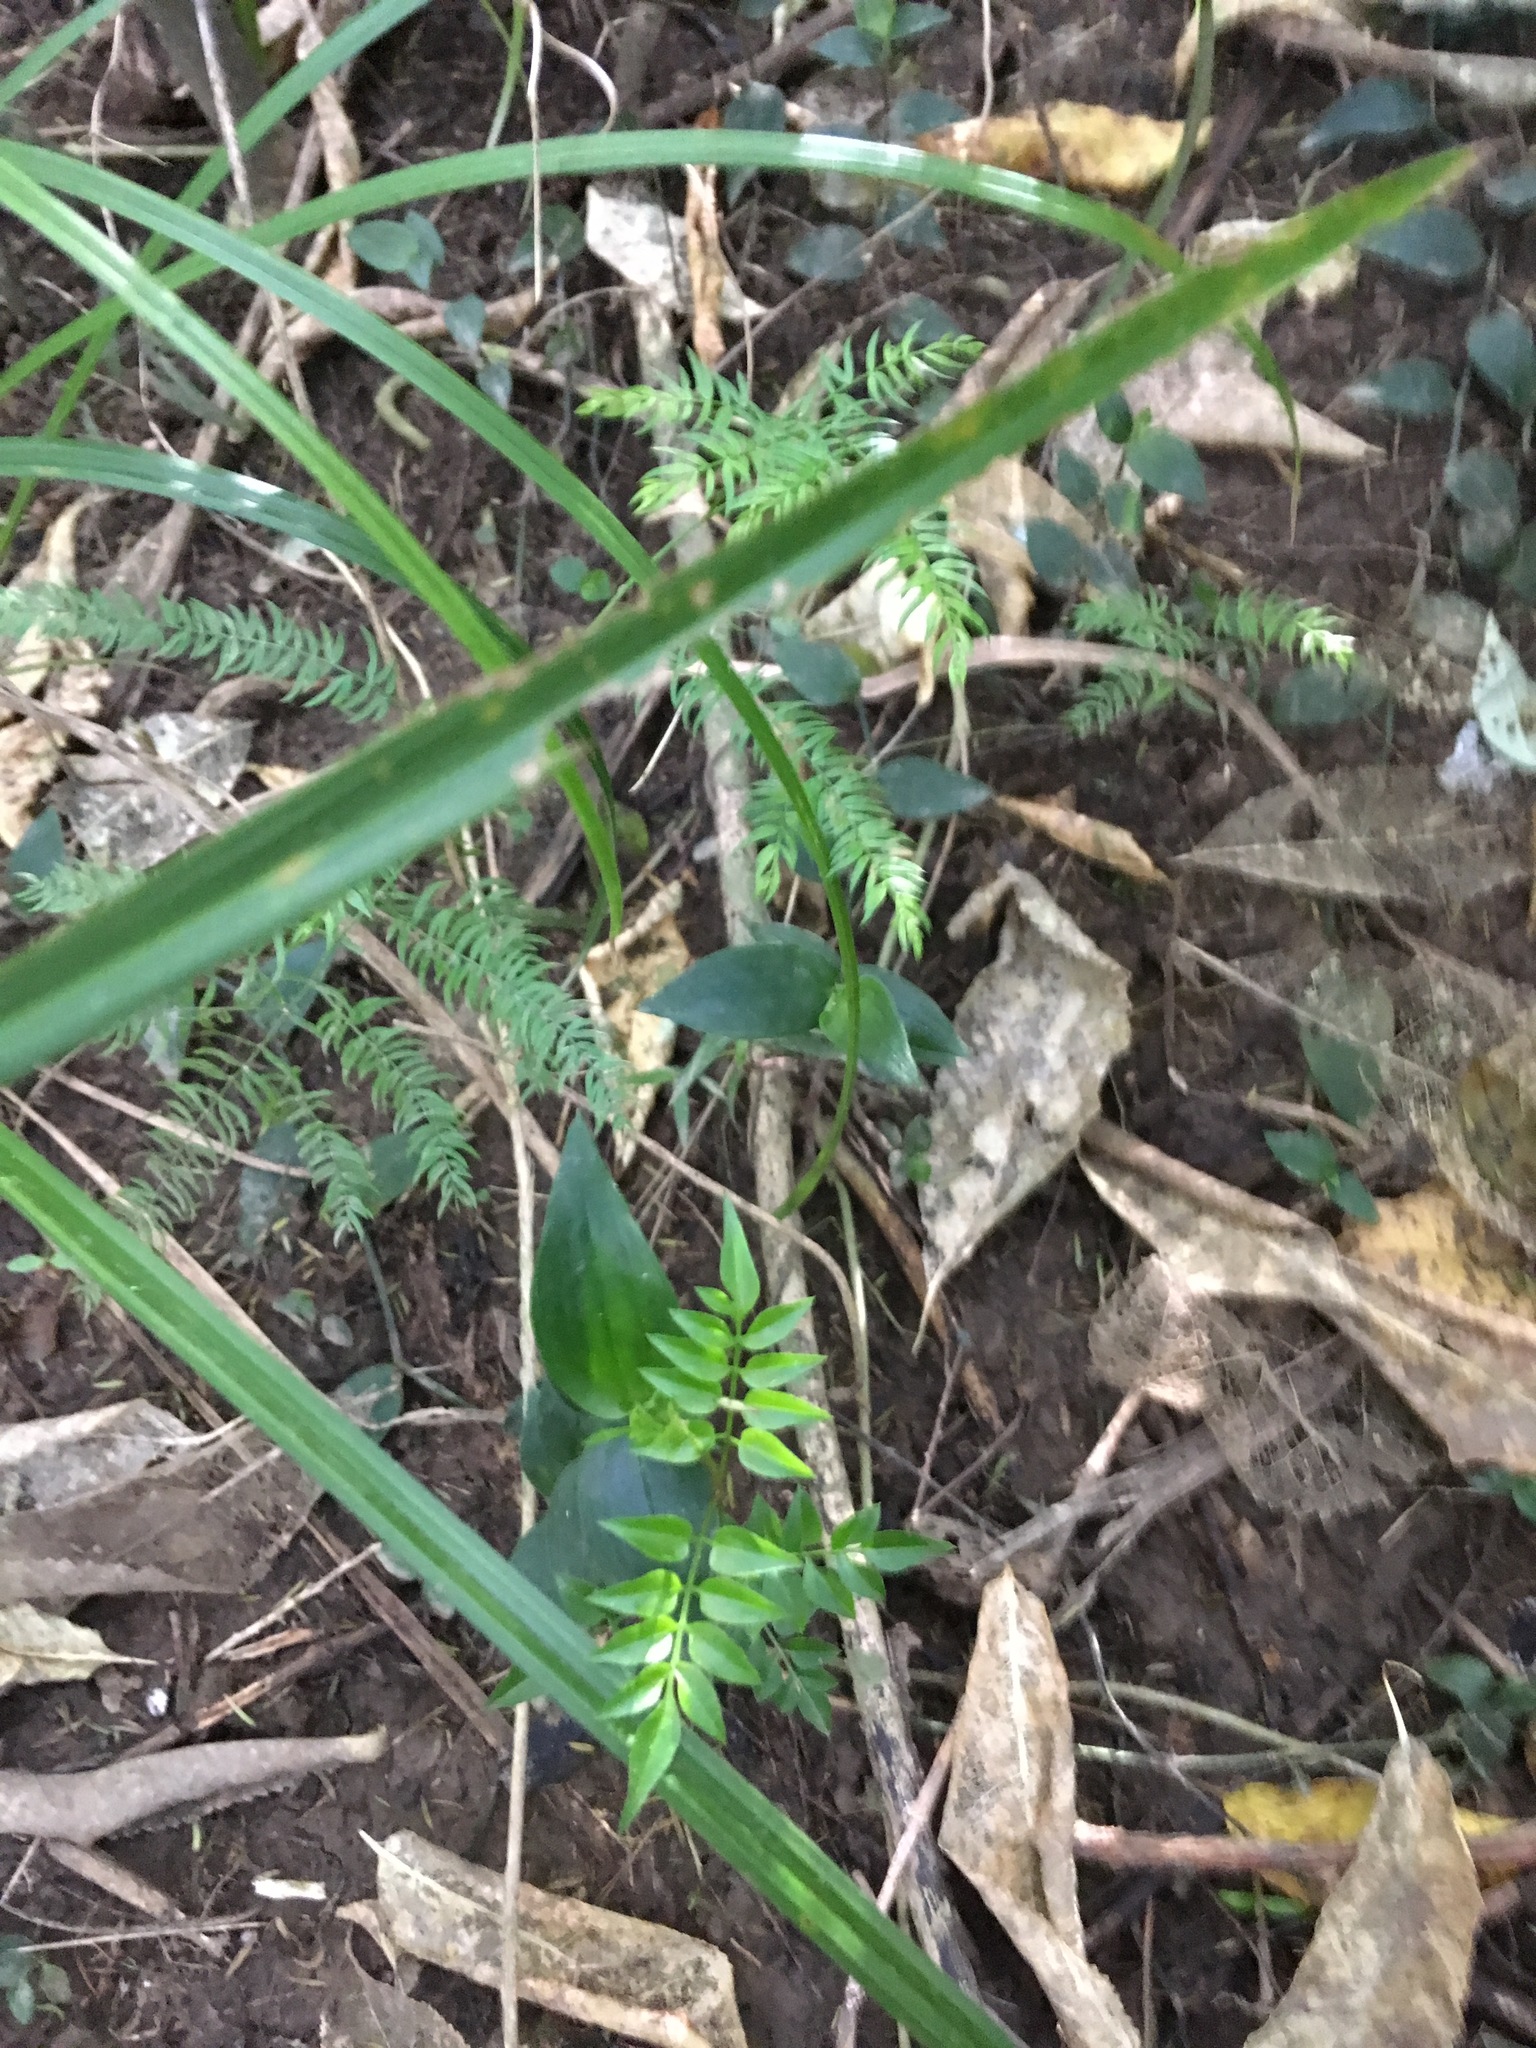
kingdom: Plantae
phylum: Tracheophyta
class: Liliopsida
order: Asparagales
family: Asparagaceae
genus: Asparagus
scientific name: Asparagus scandens
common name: Asparagus-fern
